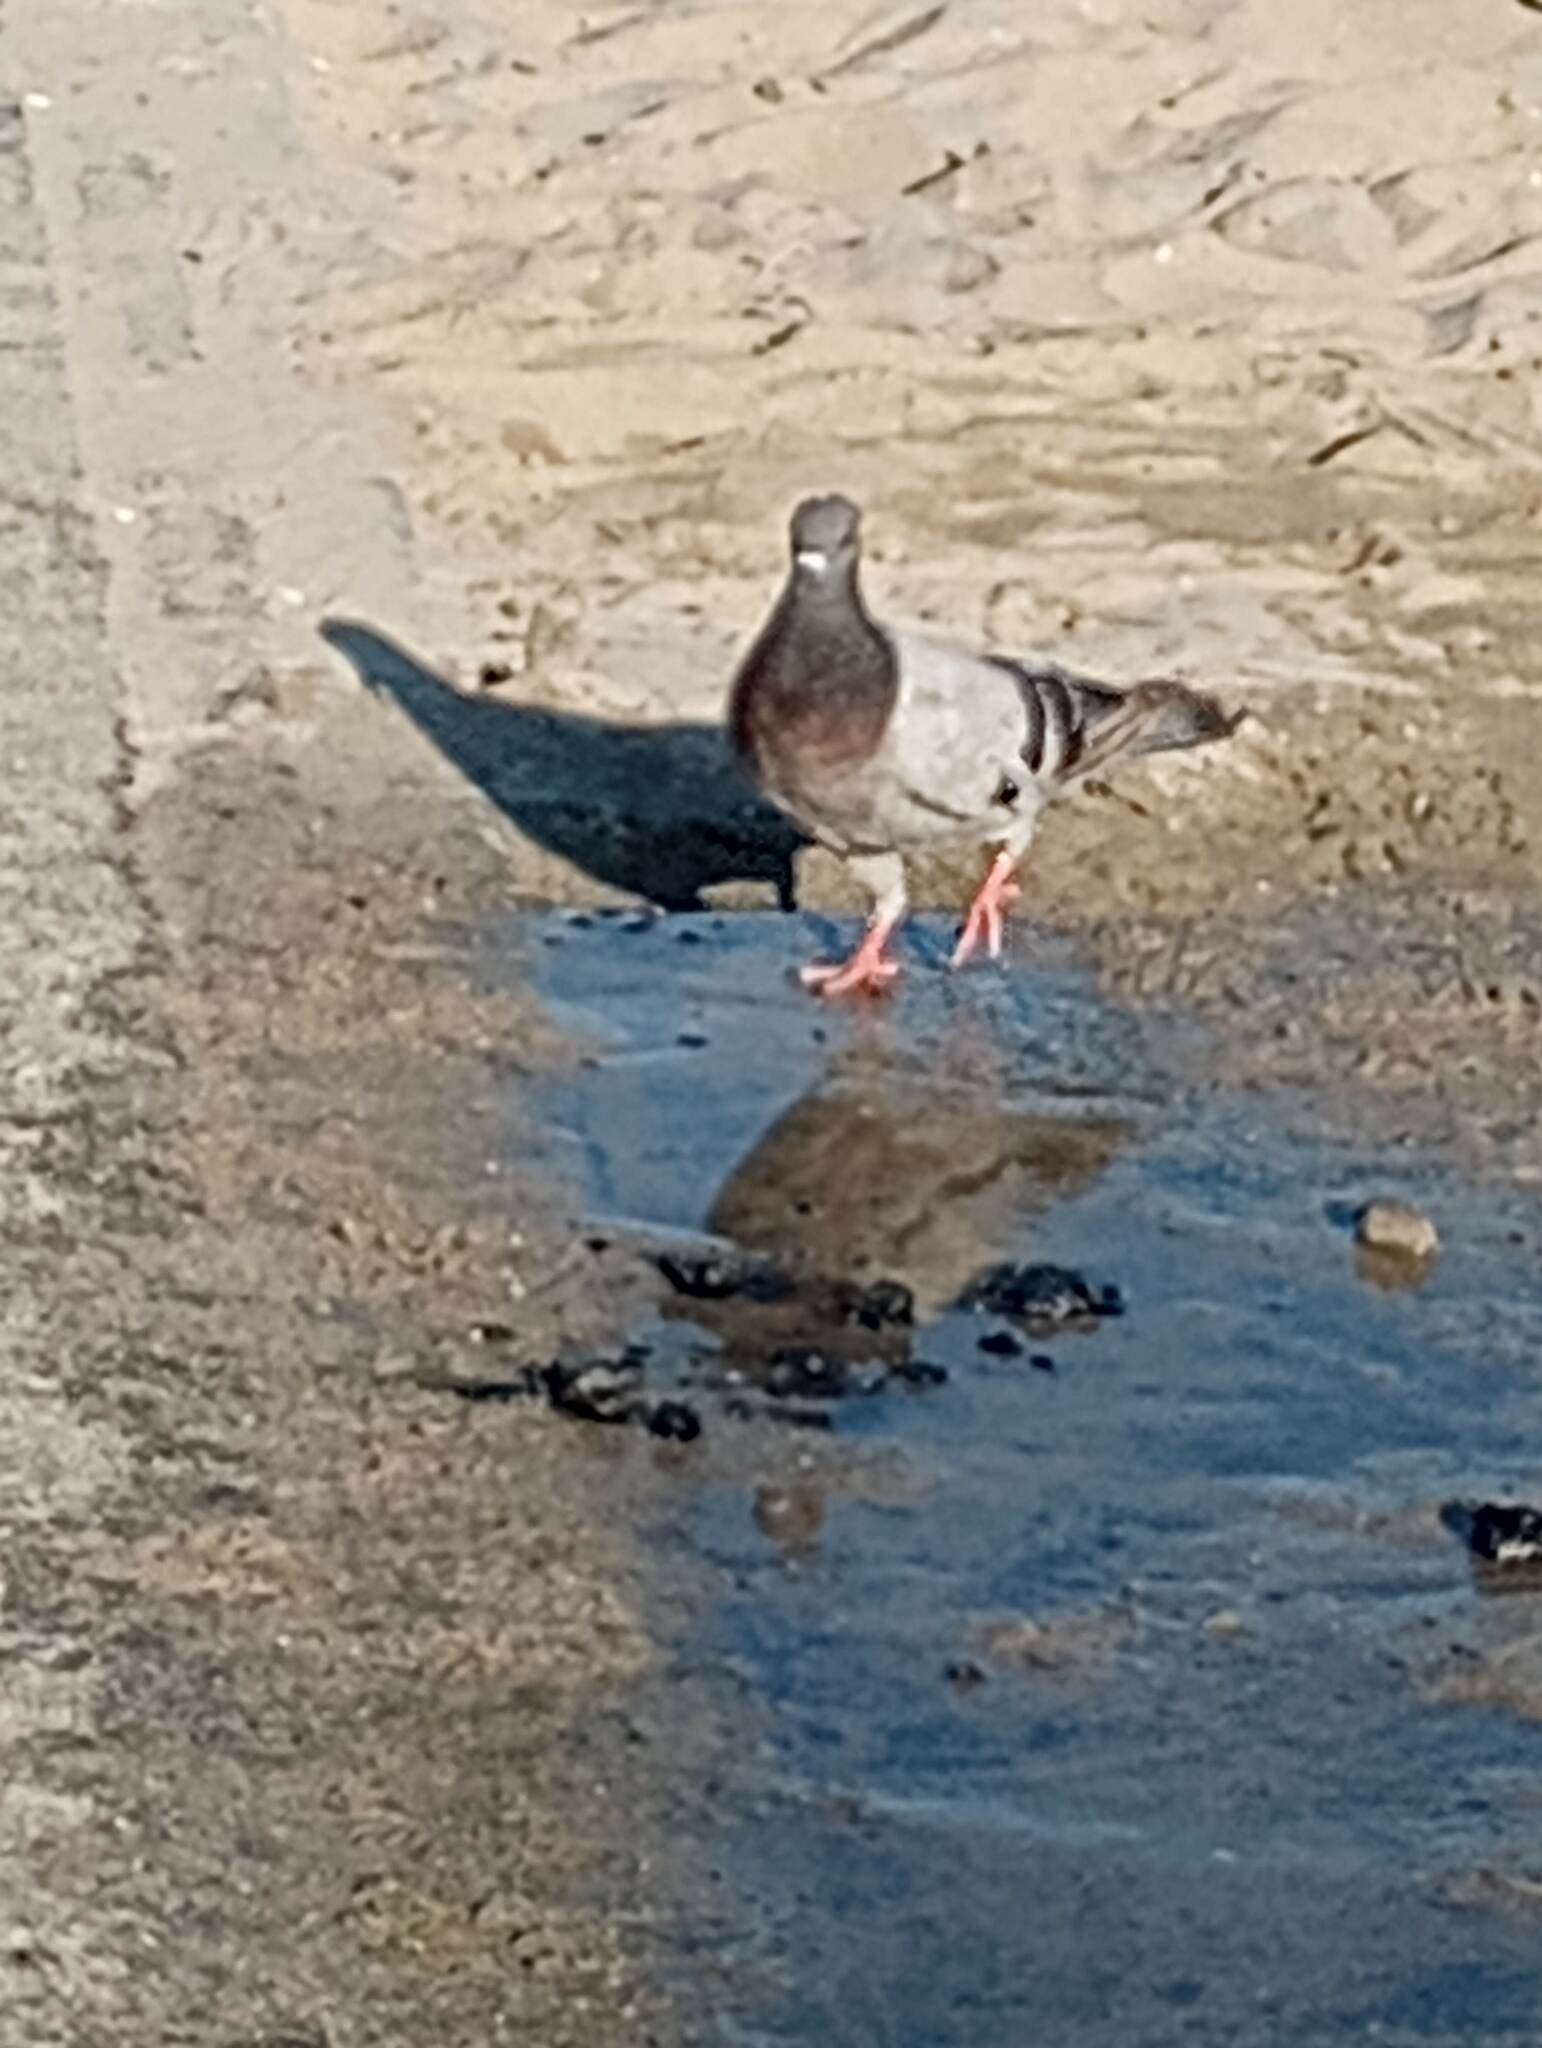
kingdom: Animalia
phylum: Chordata
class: Aves
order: Columbiformes
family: Columbidae
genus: Columba
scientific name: Columba livia
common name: Rock pigeon
